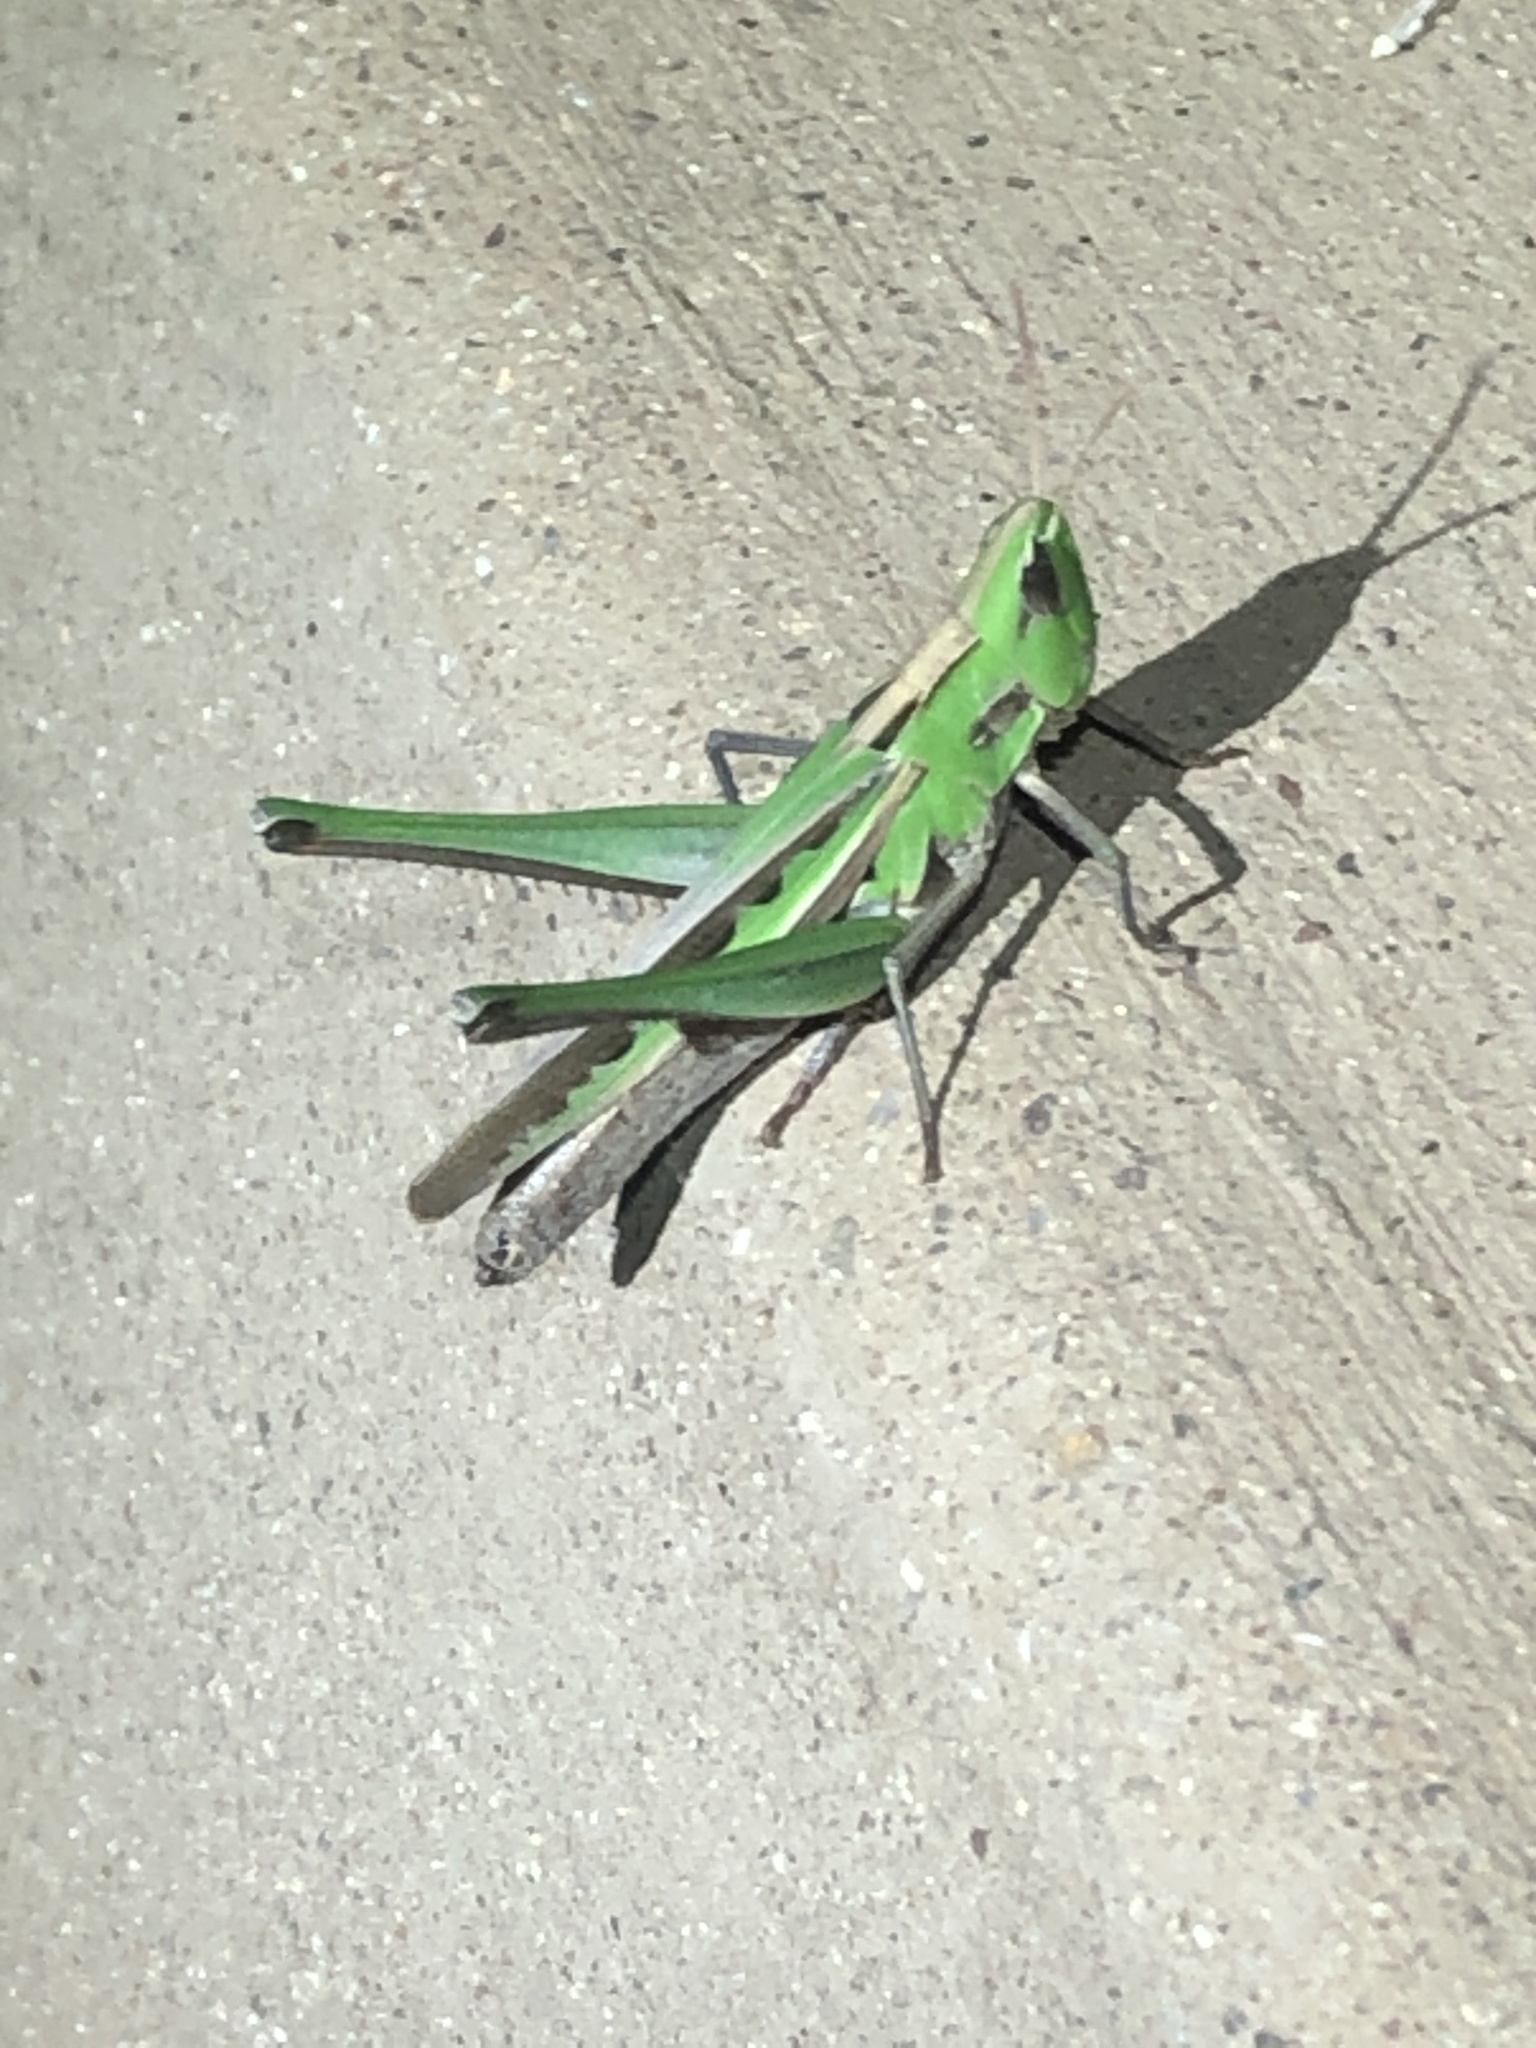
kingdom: Animalia
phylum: Arthropoda
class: Insecta
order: Orthoptera
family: Acrididae
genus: Syrbula
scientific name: Syrbula montezuma
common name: Montezuma's grasshopper
